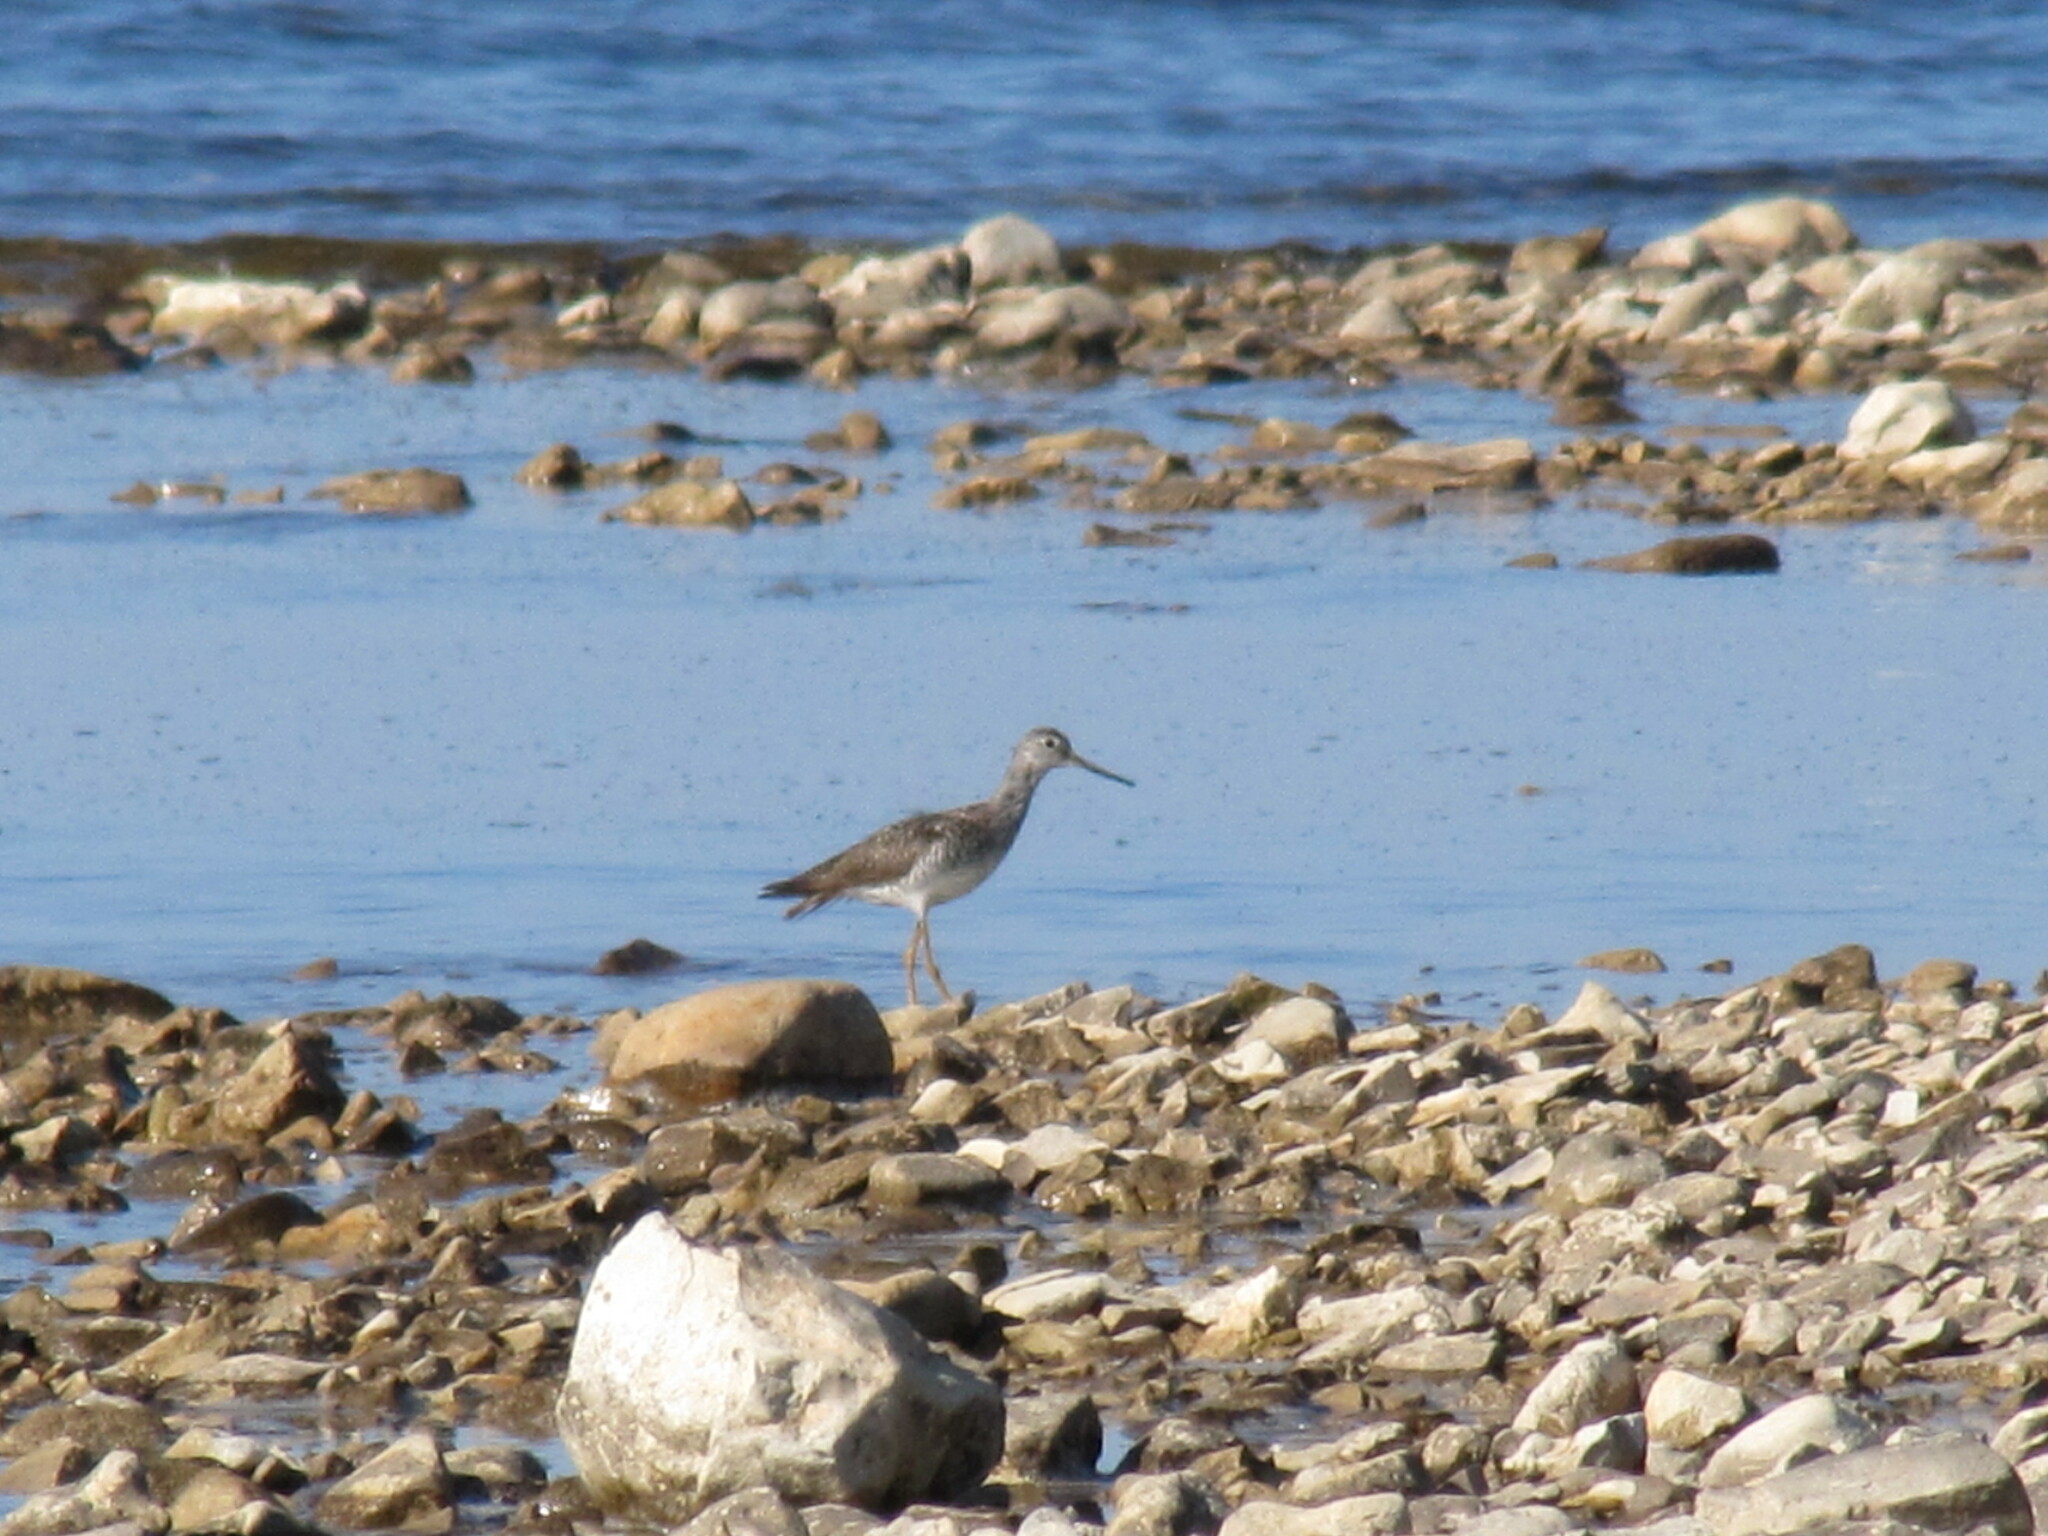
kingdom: Animalia
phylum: Chordata
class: Aves
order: Charadriiformes
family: Scolopacidae
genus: Tringa
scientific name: Tringa melanoleuca
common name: Greater yellowlegs
